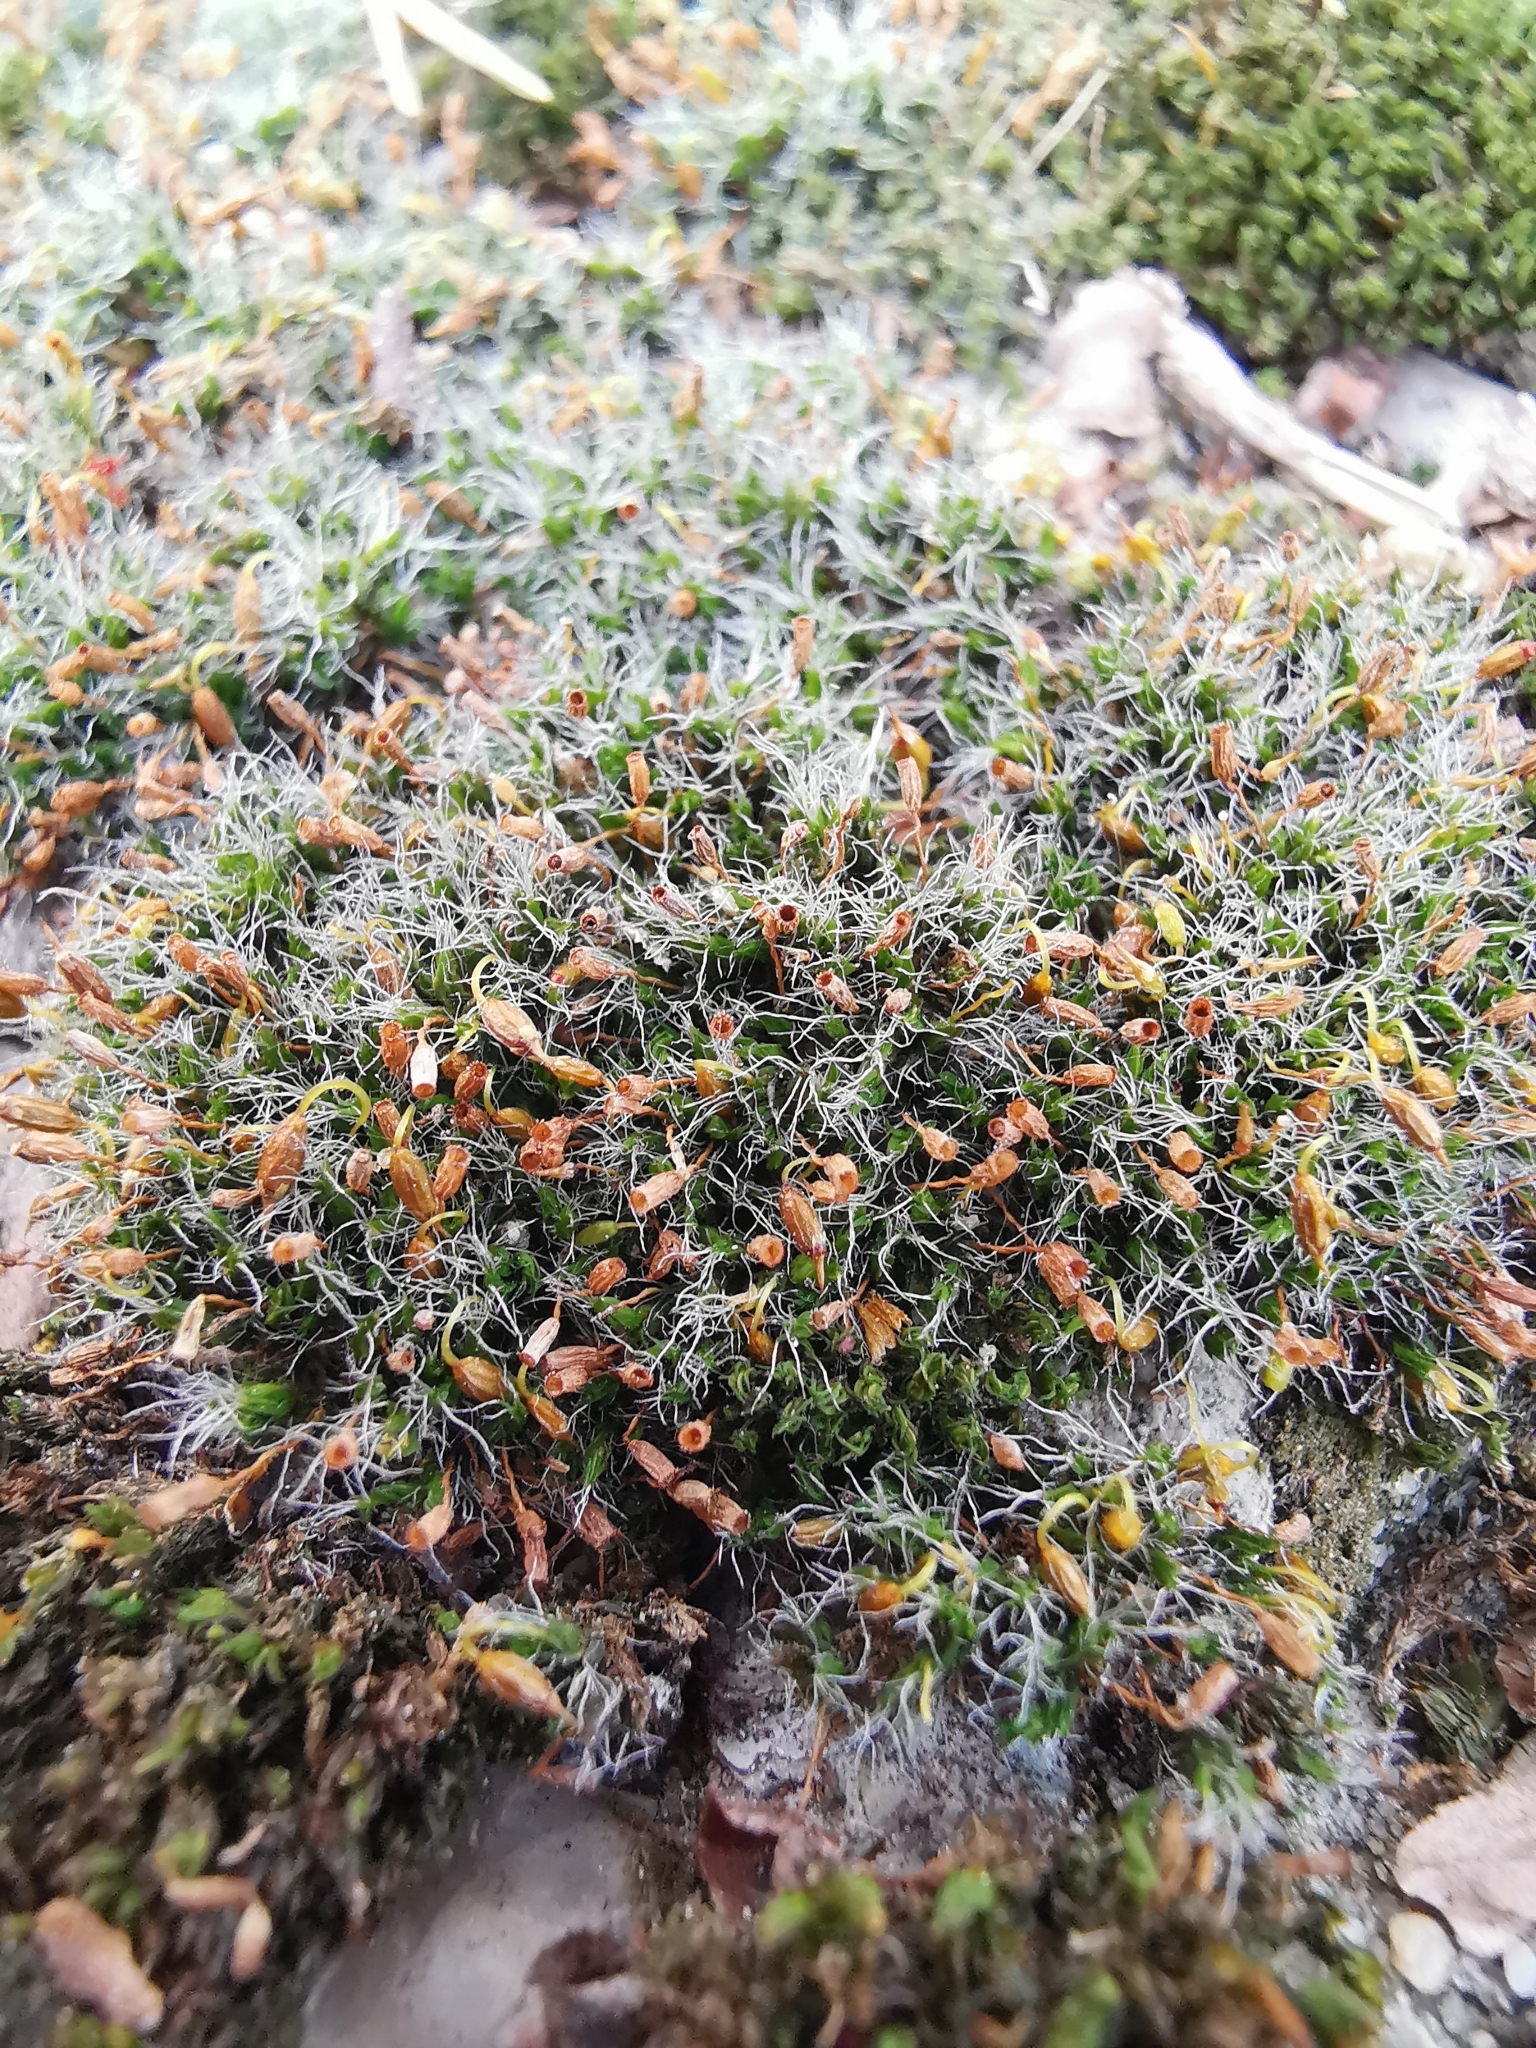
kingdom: Plantae
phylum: Bryophyta
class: Bryopsida
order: Grimmiales
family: Grimmiaceae
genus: Grimmia
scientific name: Grimmia pulvinata
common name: Grey-cushioned grimmia
